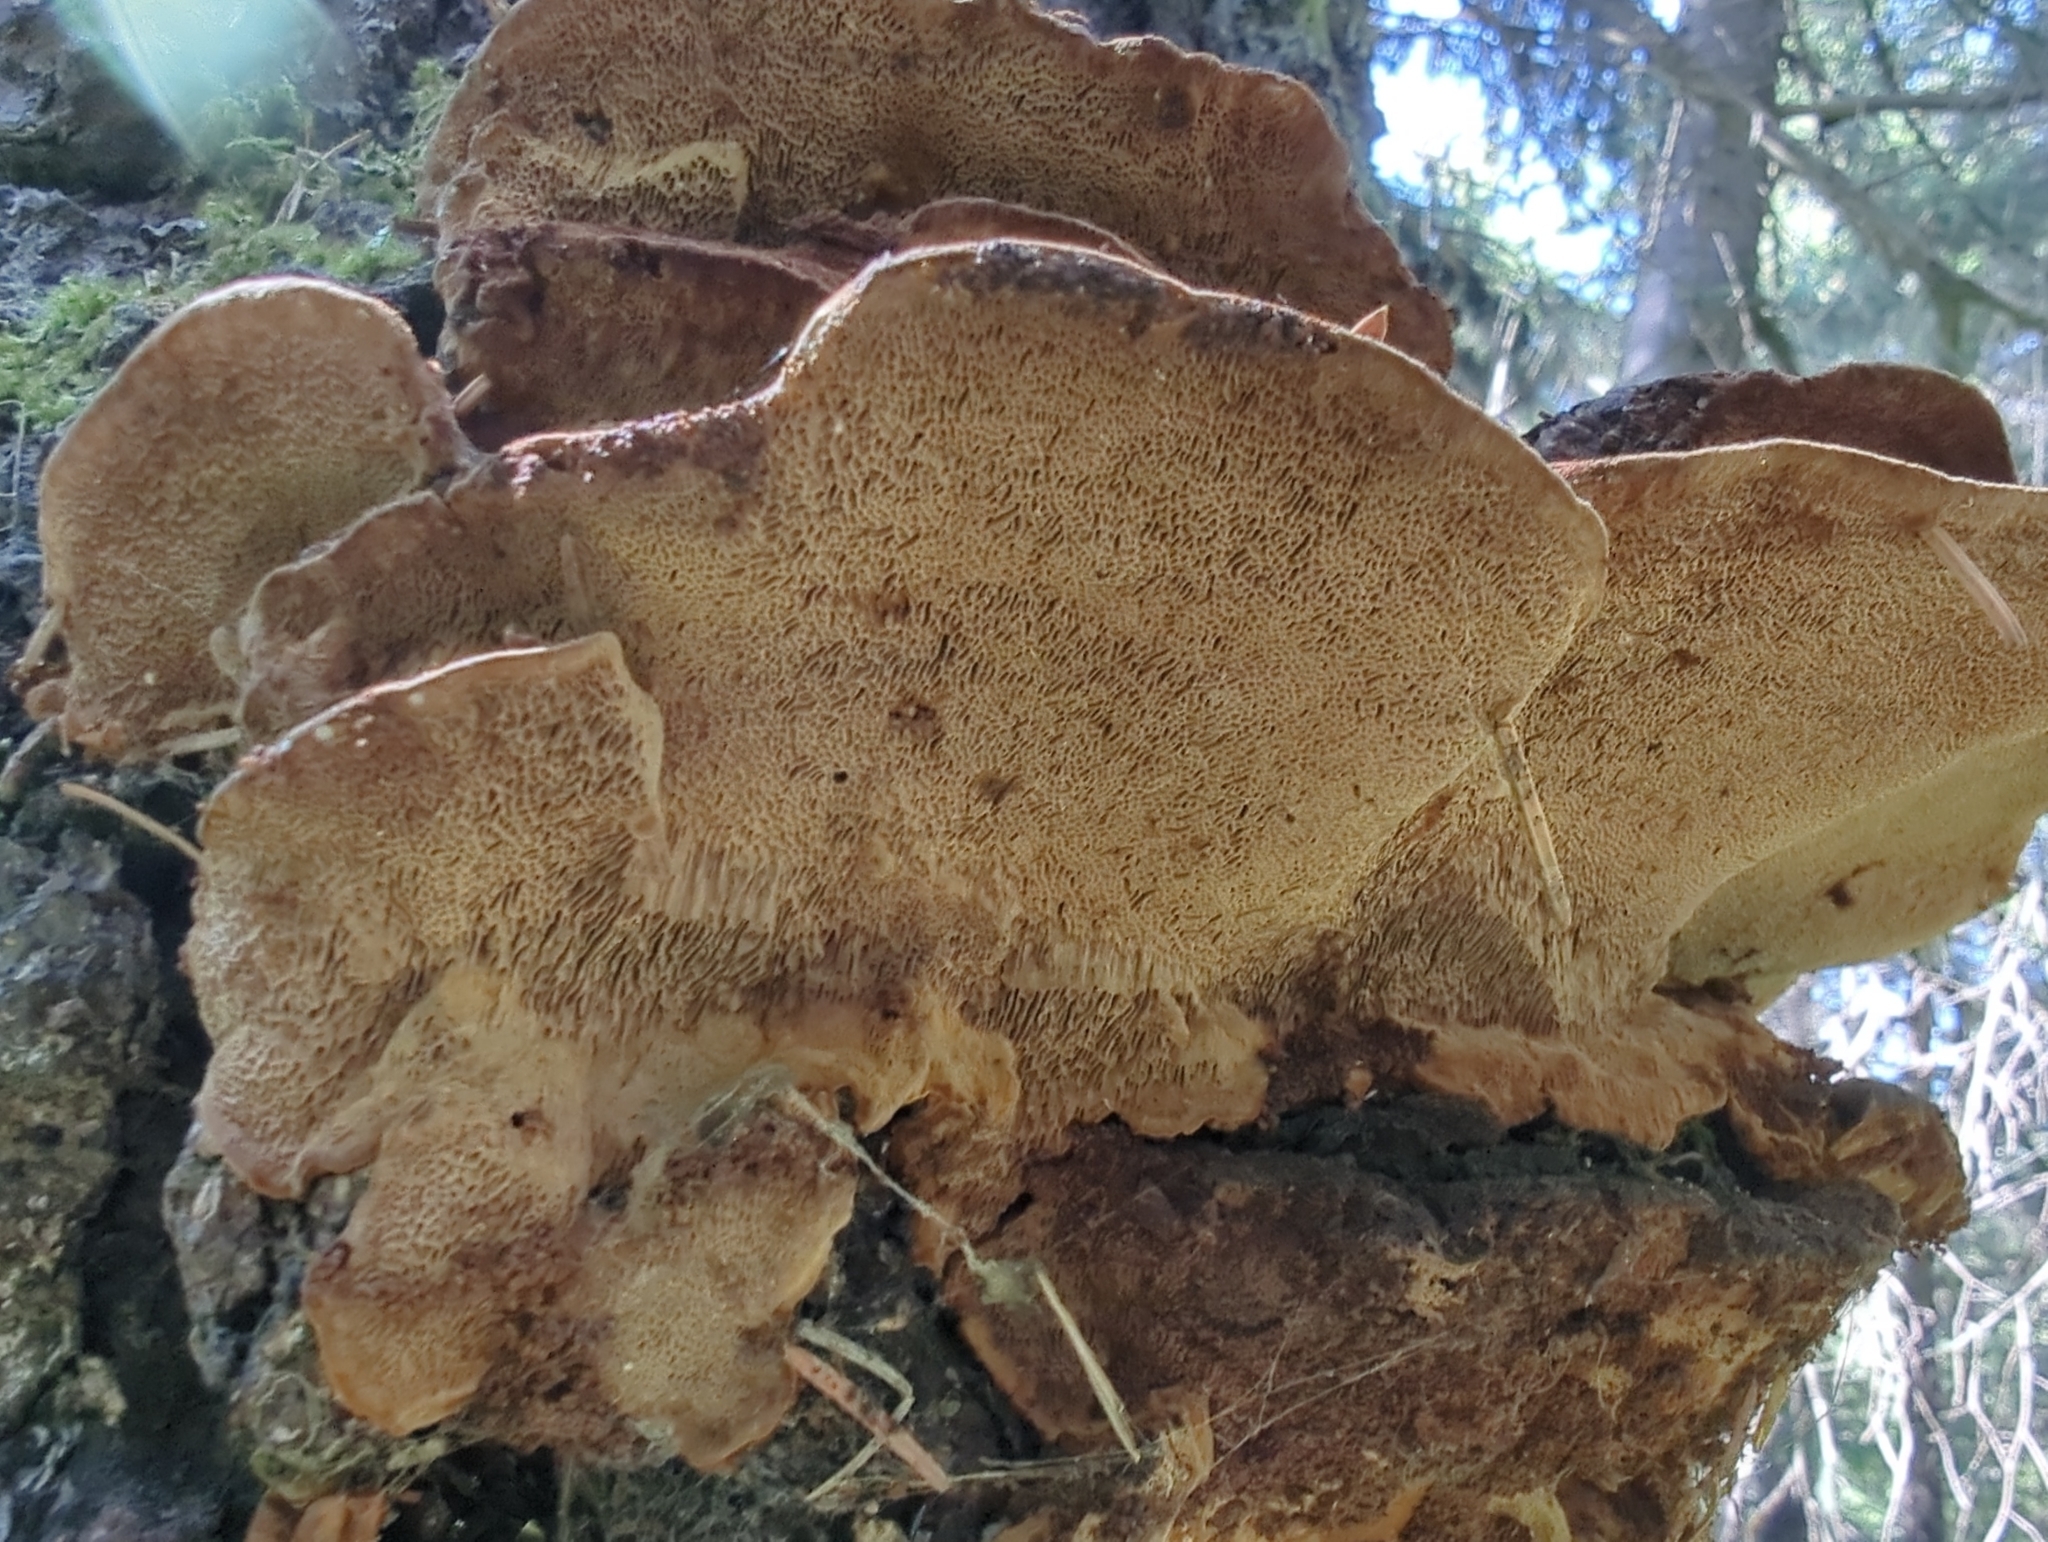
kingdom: Fungi
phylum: Basidiomycota
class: Agaricomycetes
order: Hymenochaetales
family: Hymenochaetaceae
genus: Porodaedalea
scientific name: Porodaedalea pini
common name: Pine bracket
